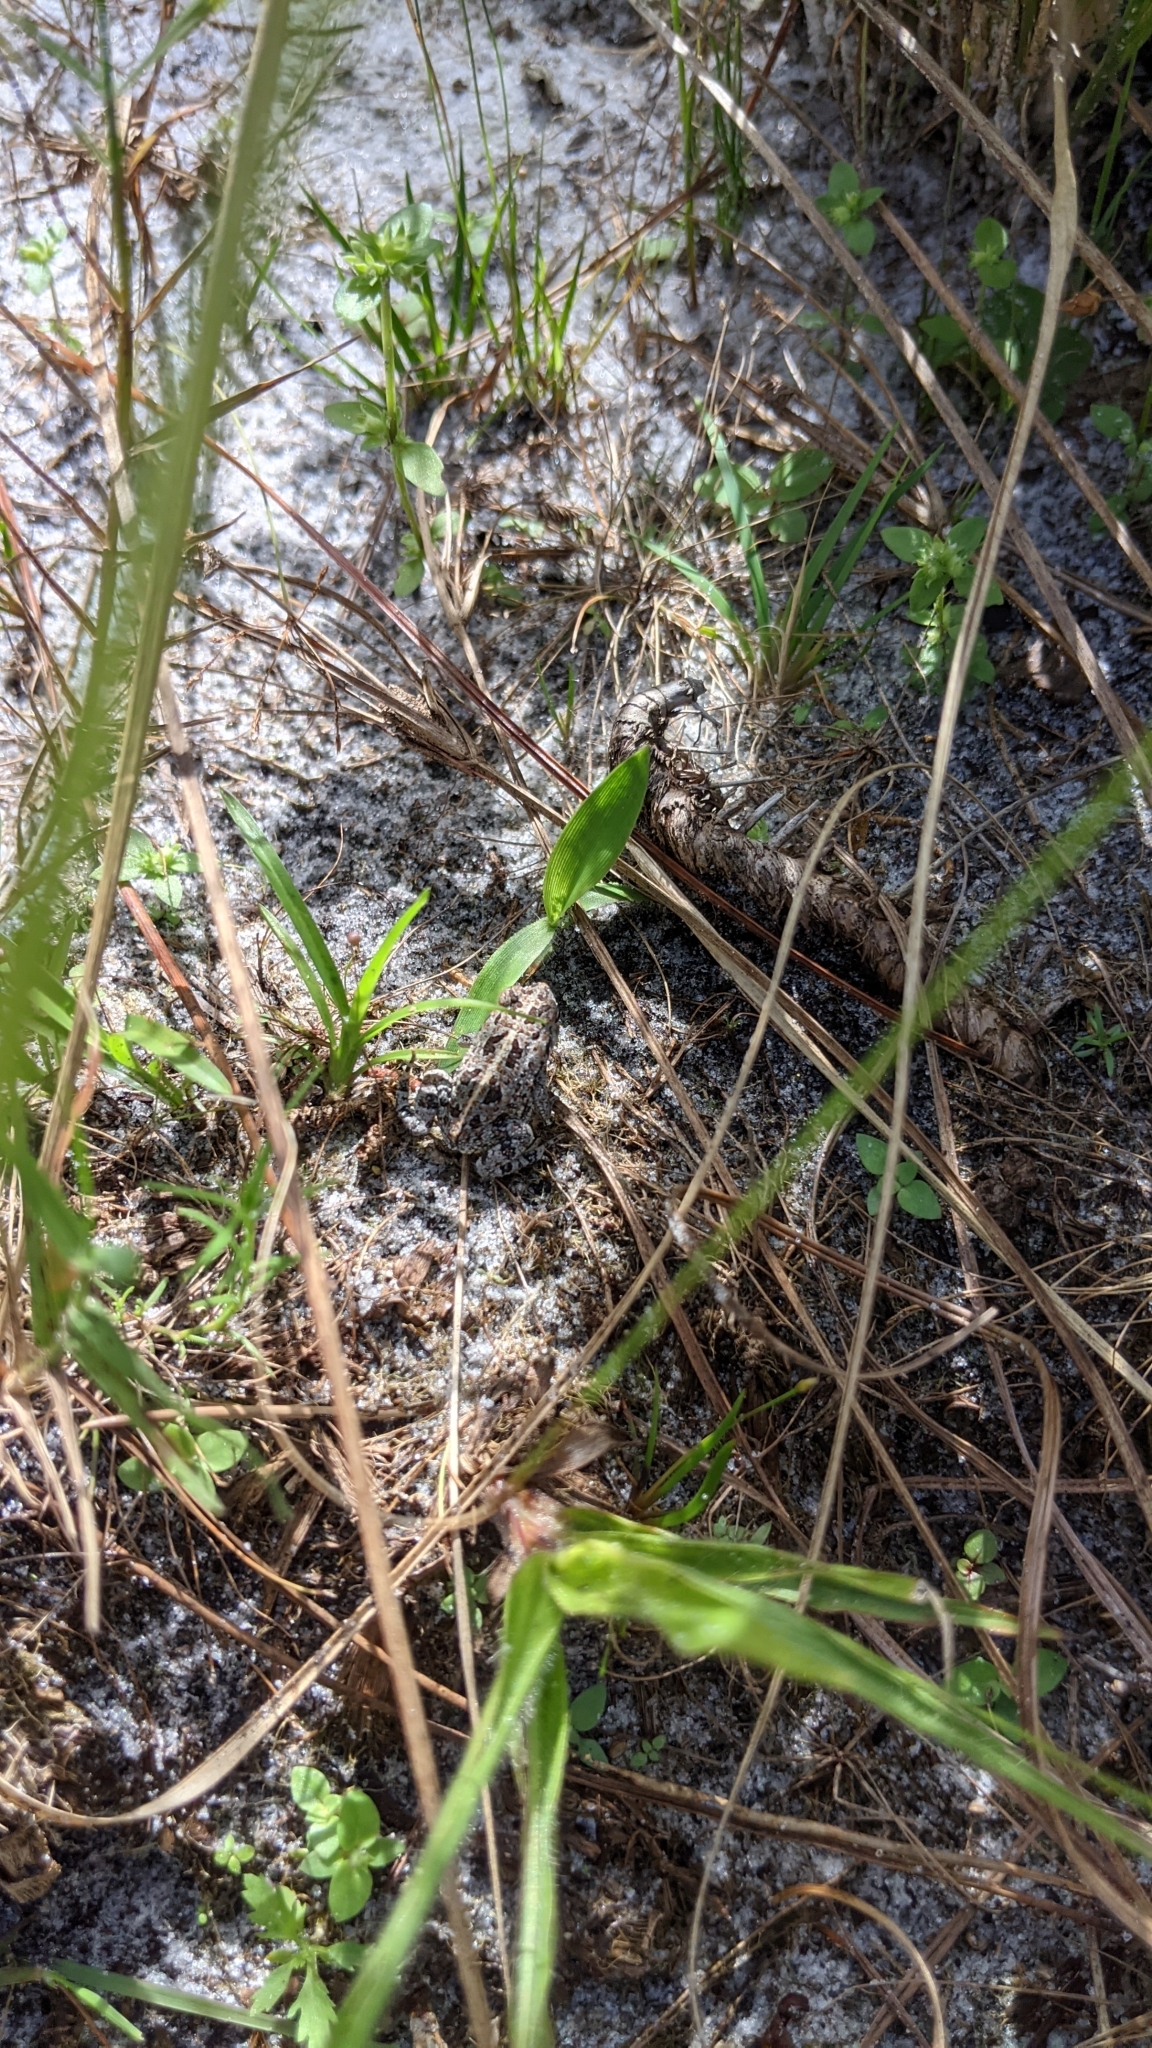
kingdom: Animalia
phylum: Chordata
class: Amphibia
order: Anura
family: Bufonidae
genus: Anaxyrus
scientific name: Anaxyrus quercicus
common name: Oak toad
